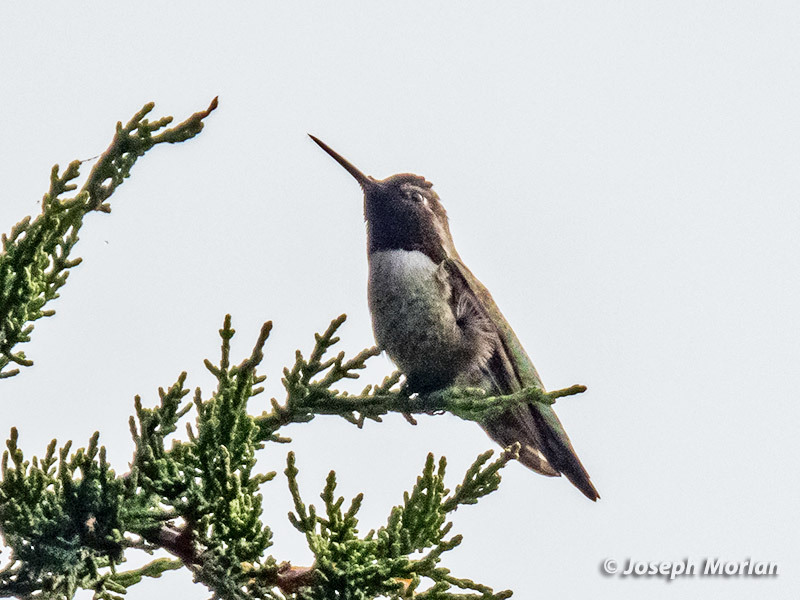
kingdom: Animalia
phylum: Chordata
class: Aves
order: Apodiformes
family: Trochilidae
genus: Calypte
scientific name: Calypte anna
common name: Anna's hummingbird
